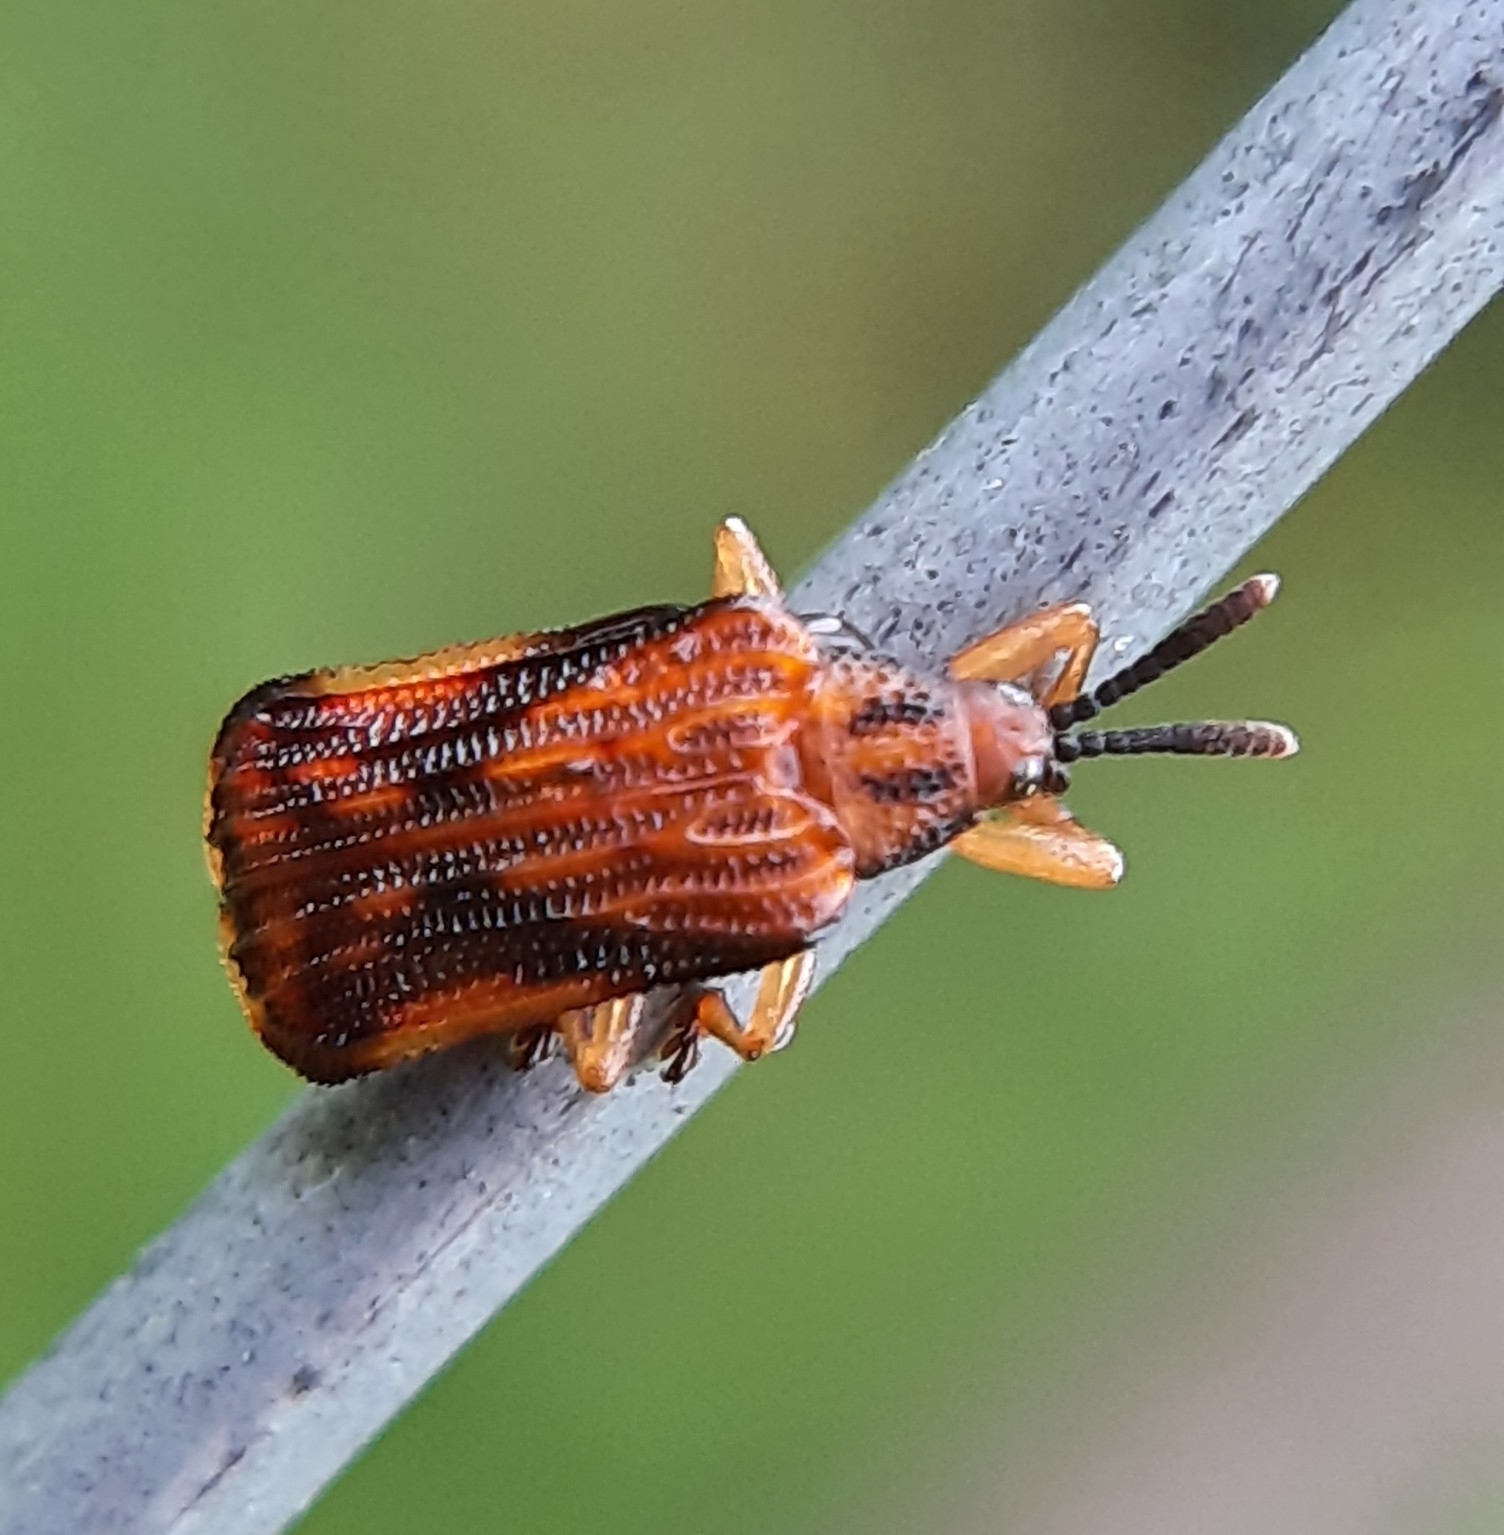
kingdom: Animalia
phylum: Arthropoda
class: Insecta
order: Coleoptera
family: Chrysomelidae
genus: Baliosus
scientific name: Baliosus nervosus
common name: Basswood leaf miner
